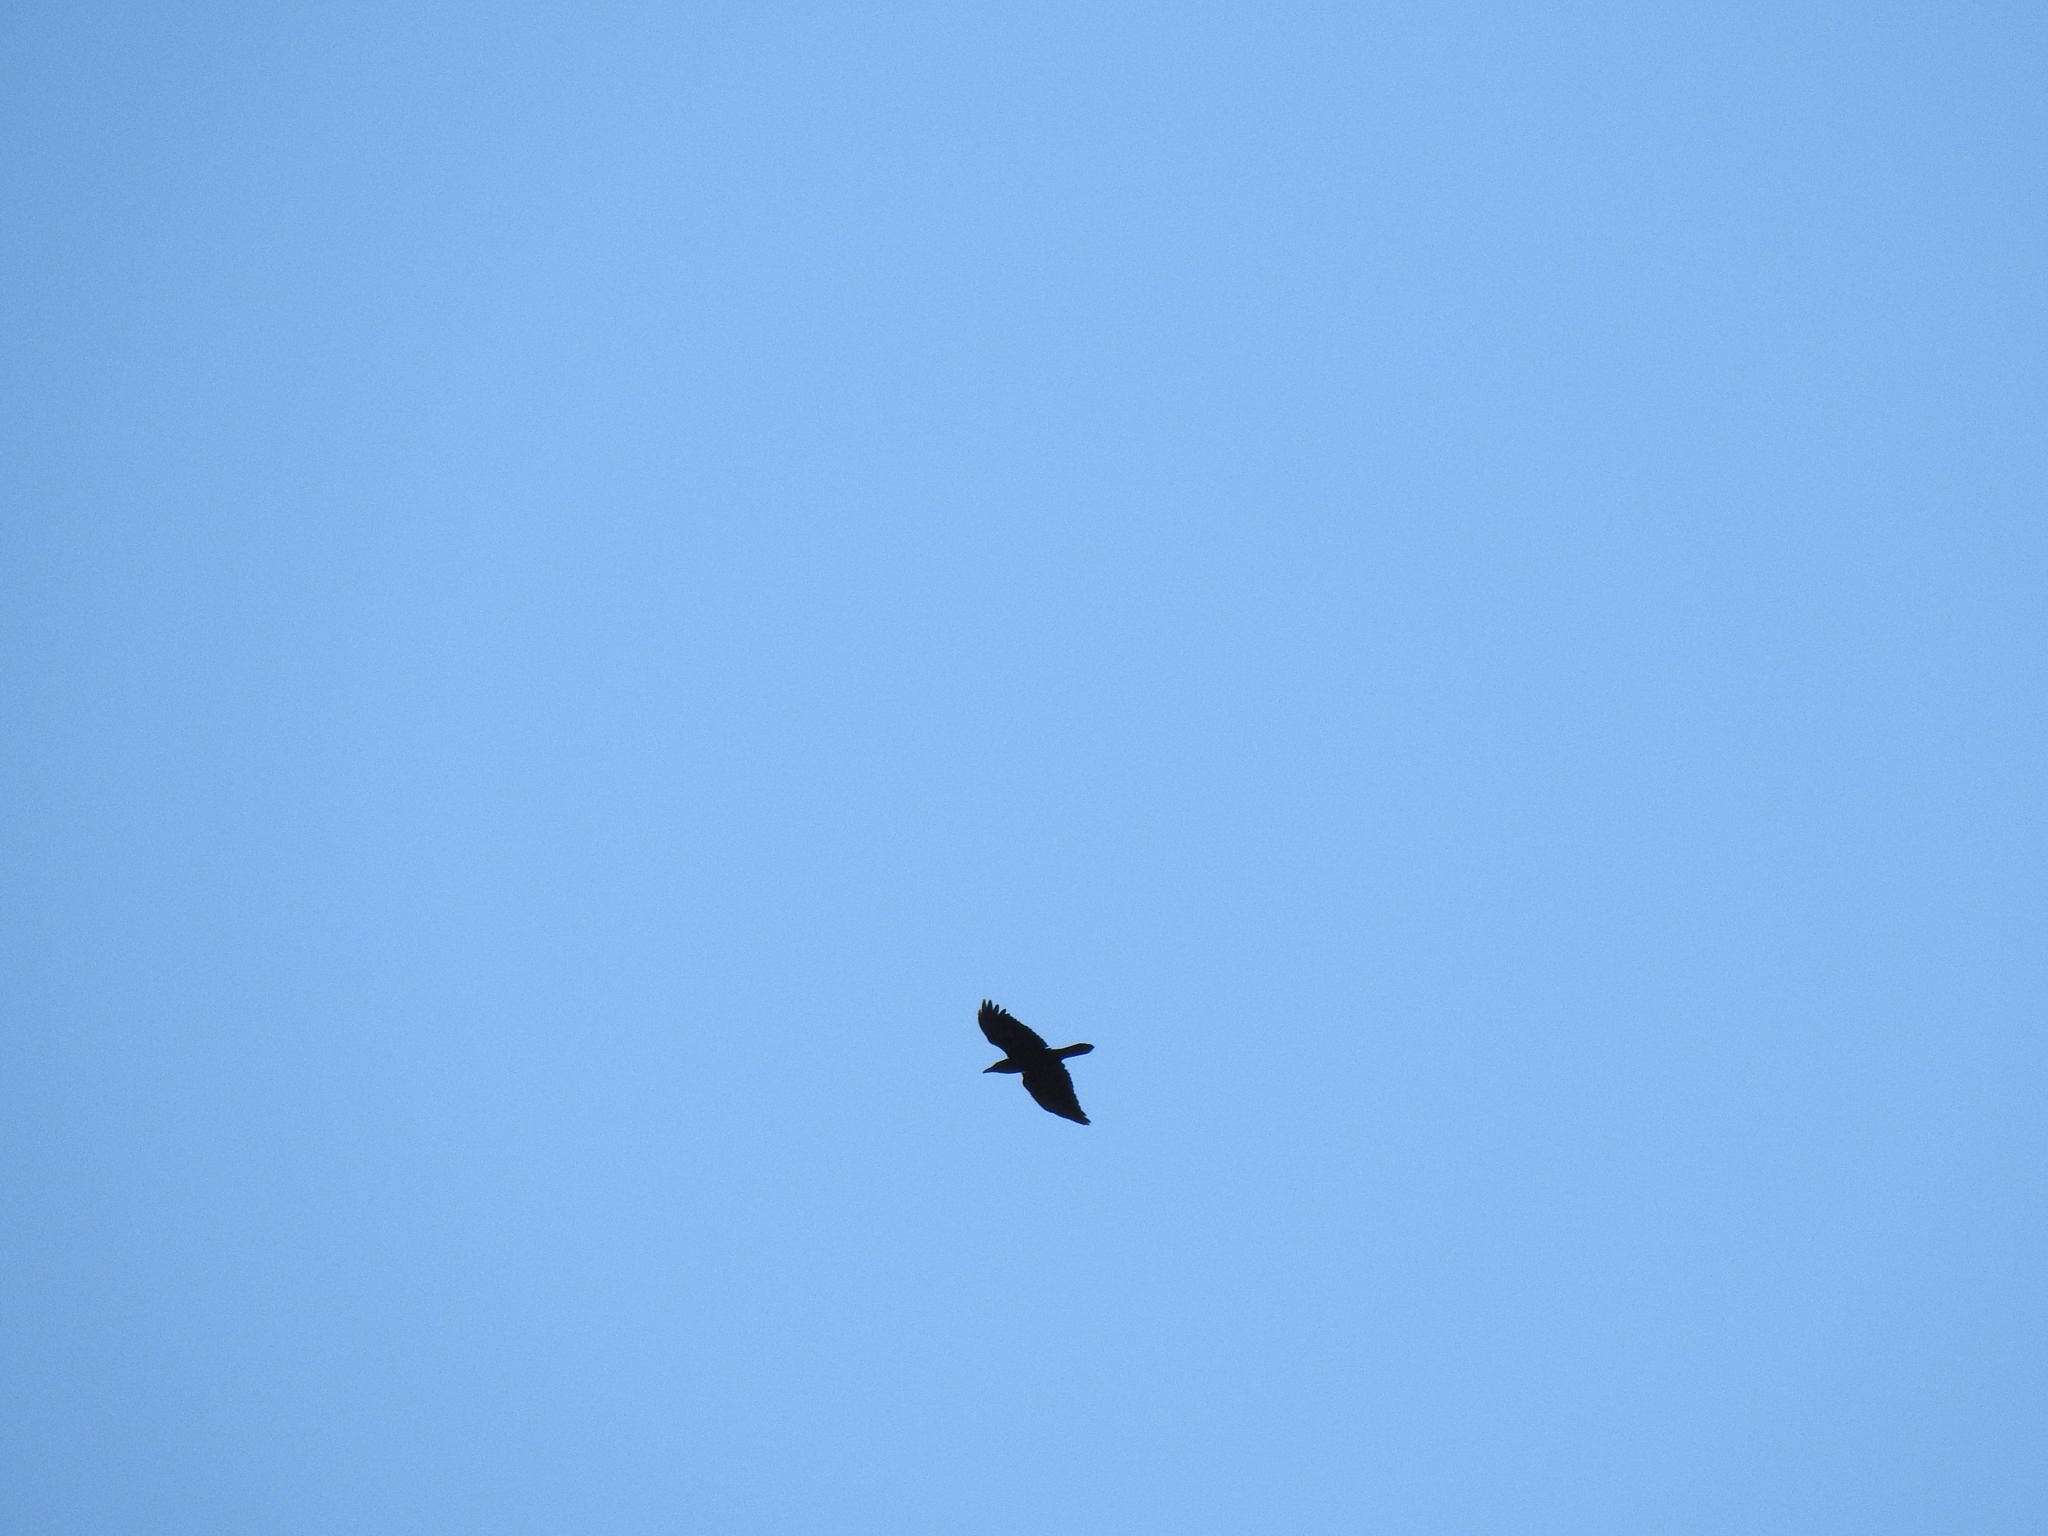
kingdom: Animalia
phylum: Chordata
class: Aves
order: Passeriformes
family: Corvidae
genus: Corvus
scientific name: Corvus corax
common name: Common raven
